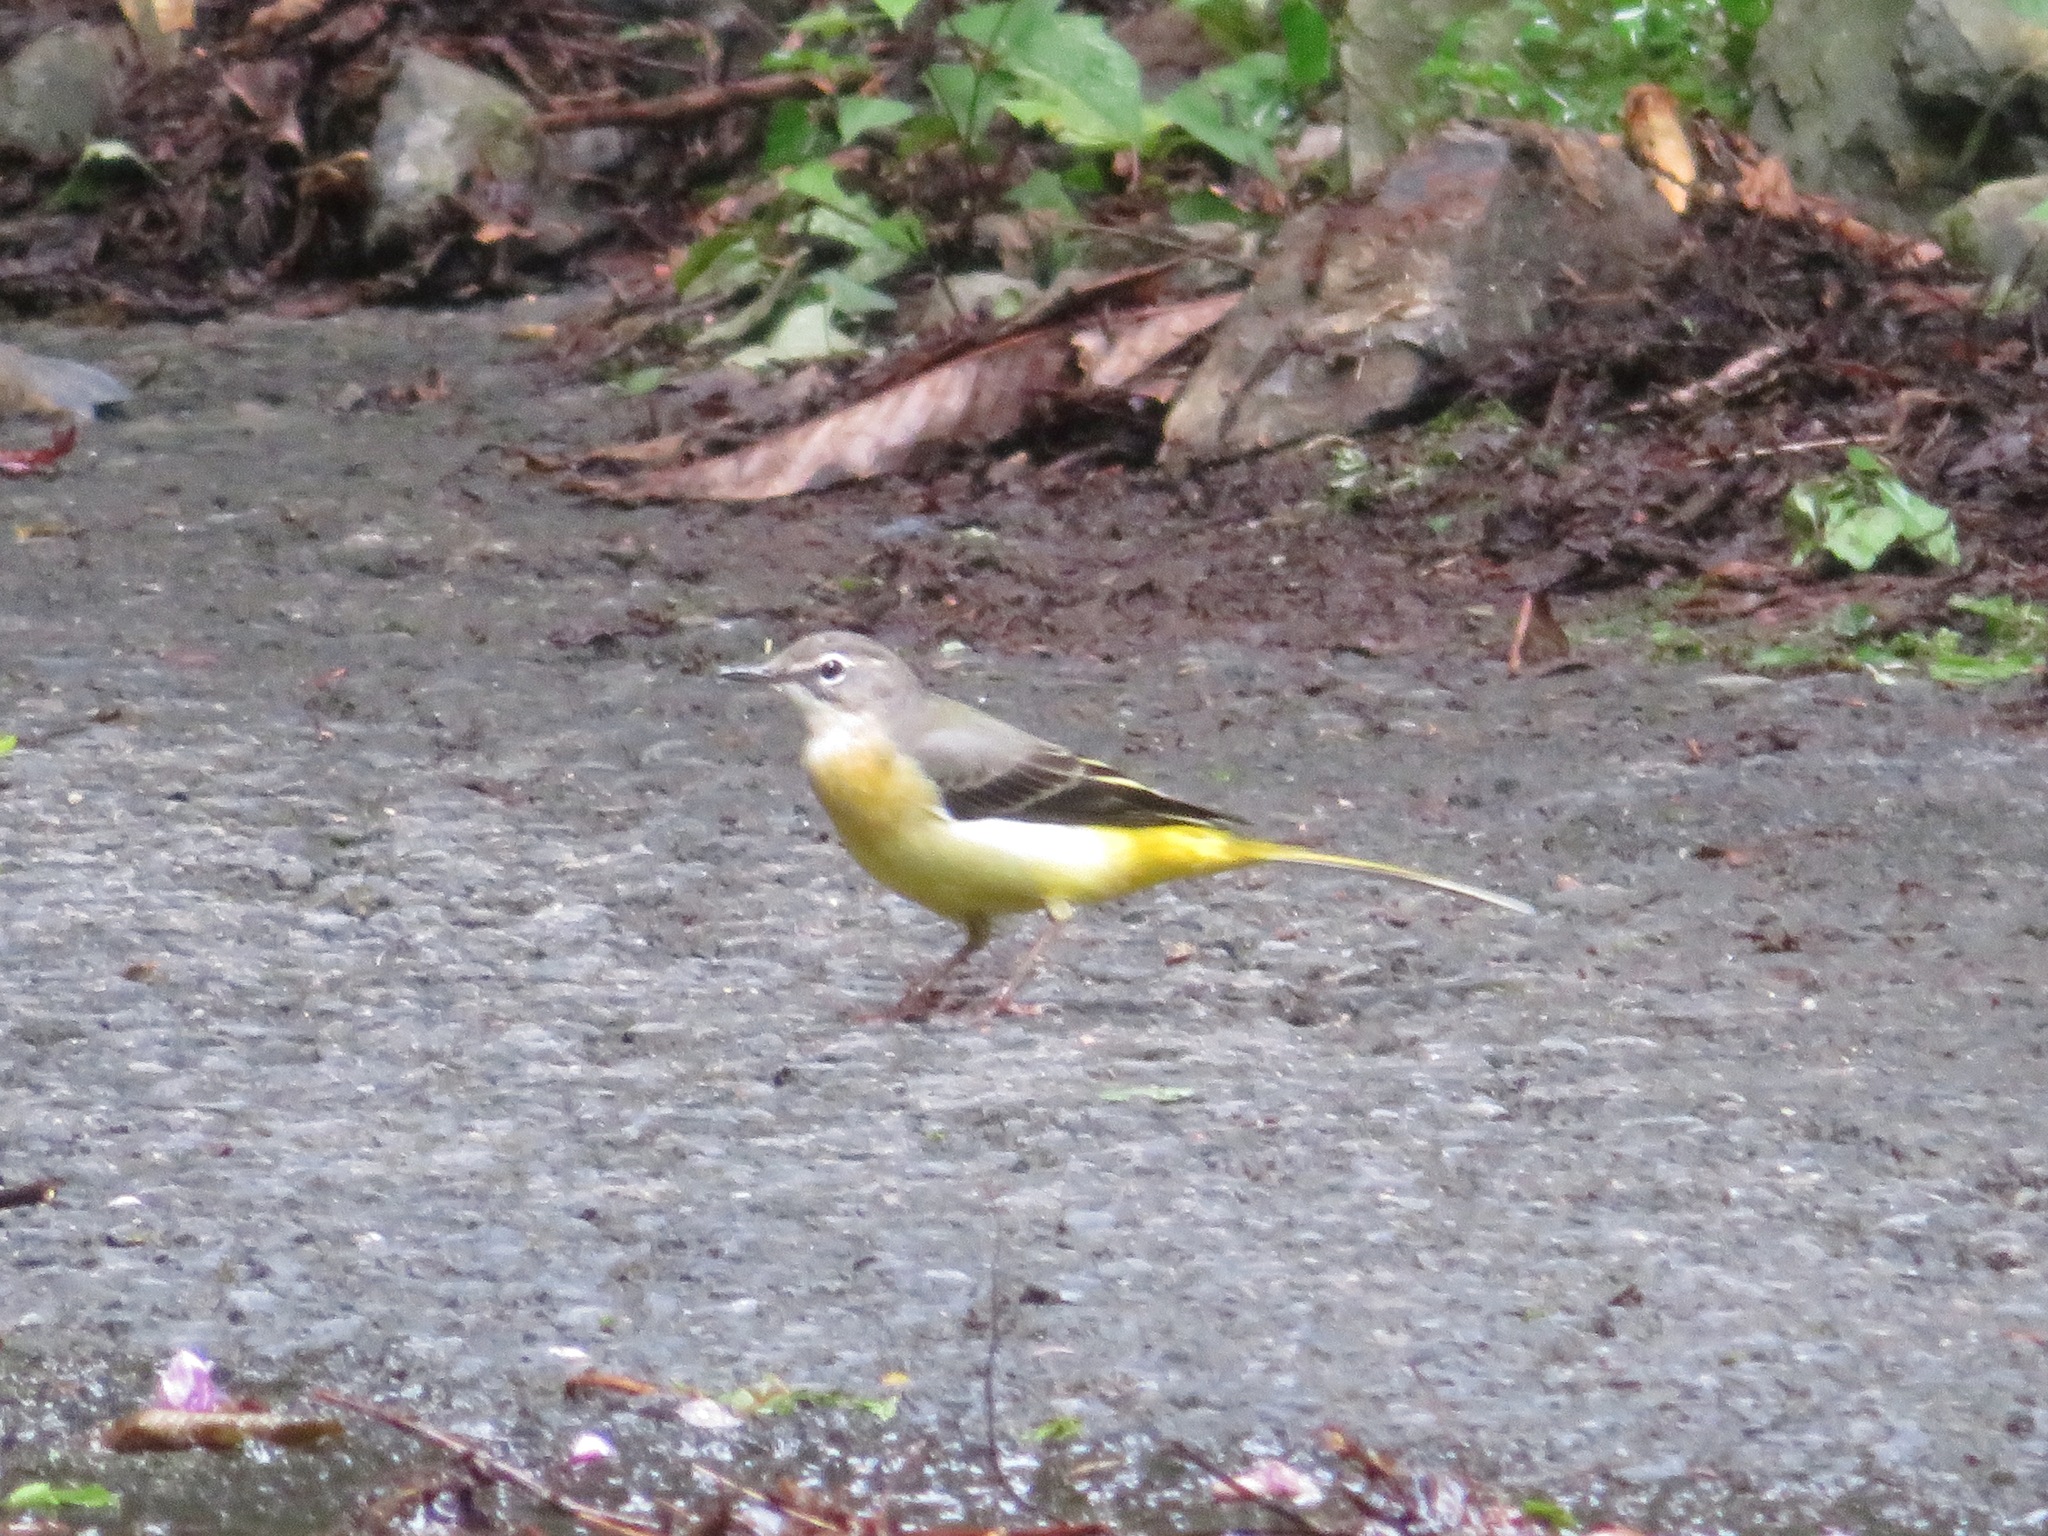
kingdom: Animalia
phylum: Chordata
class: Aves
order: Passeriformes
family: Motacillidae
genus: Motacilla
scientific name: Motacilla cinerea
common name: Grey wagtail
